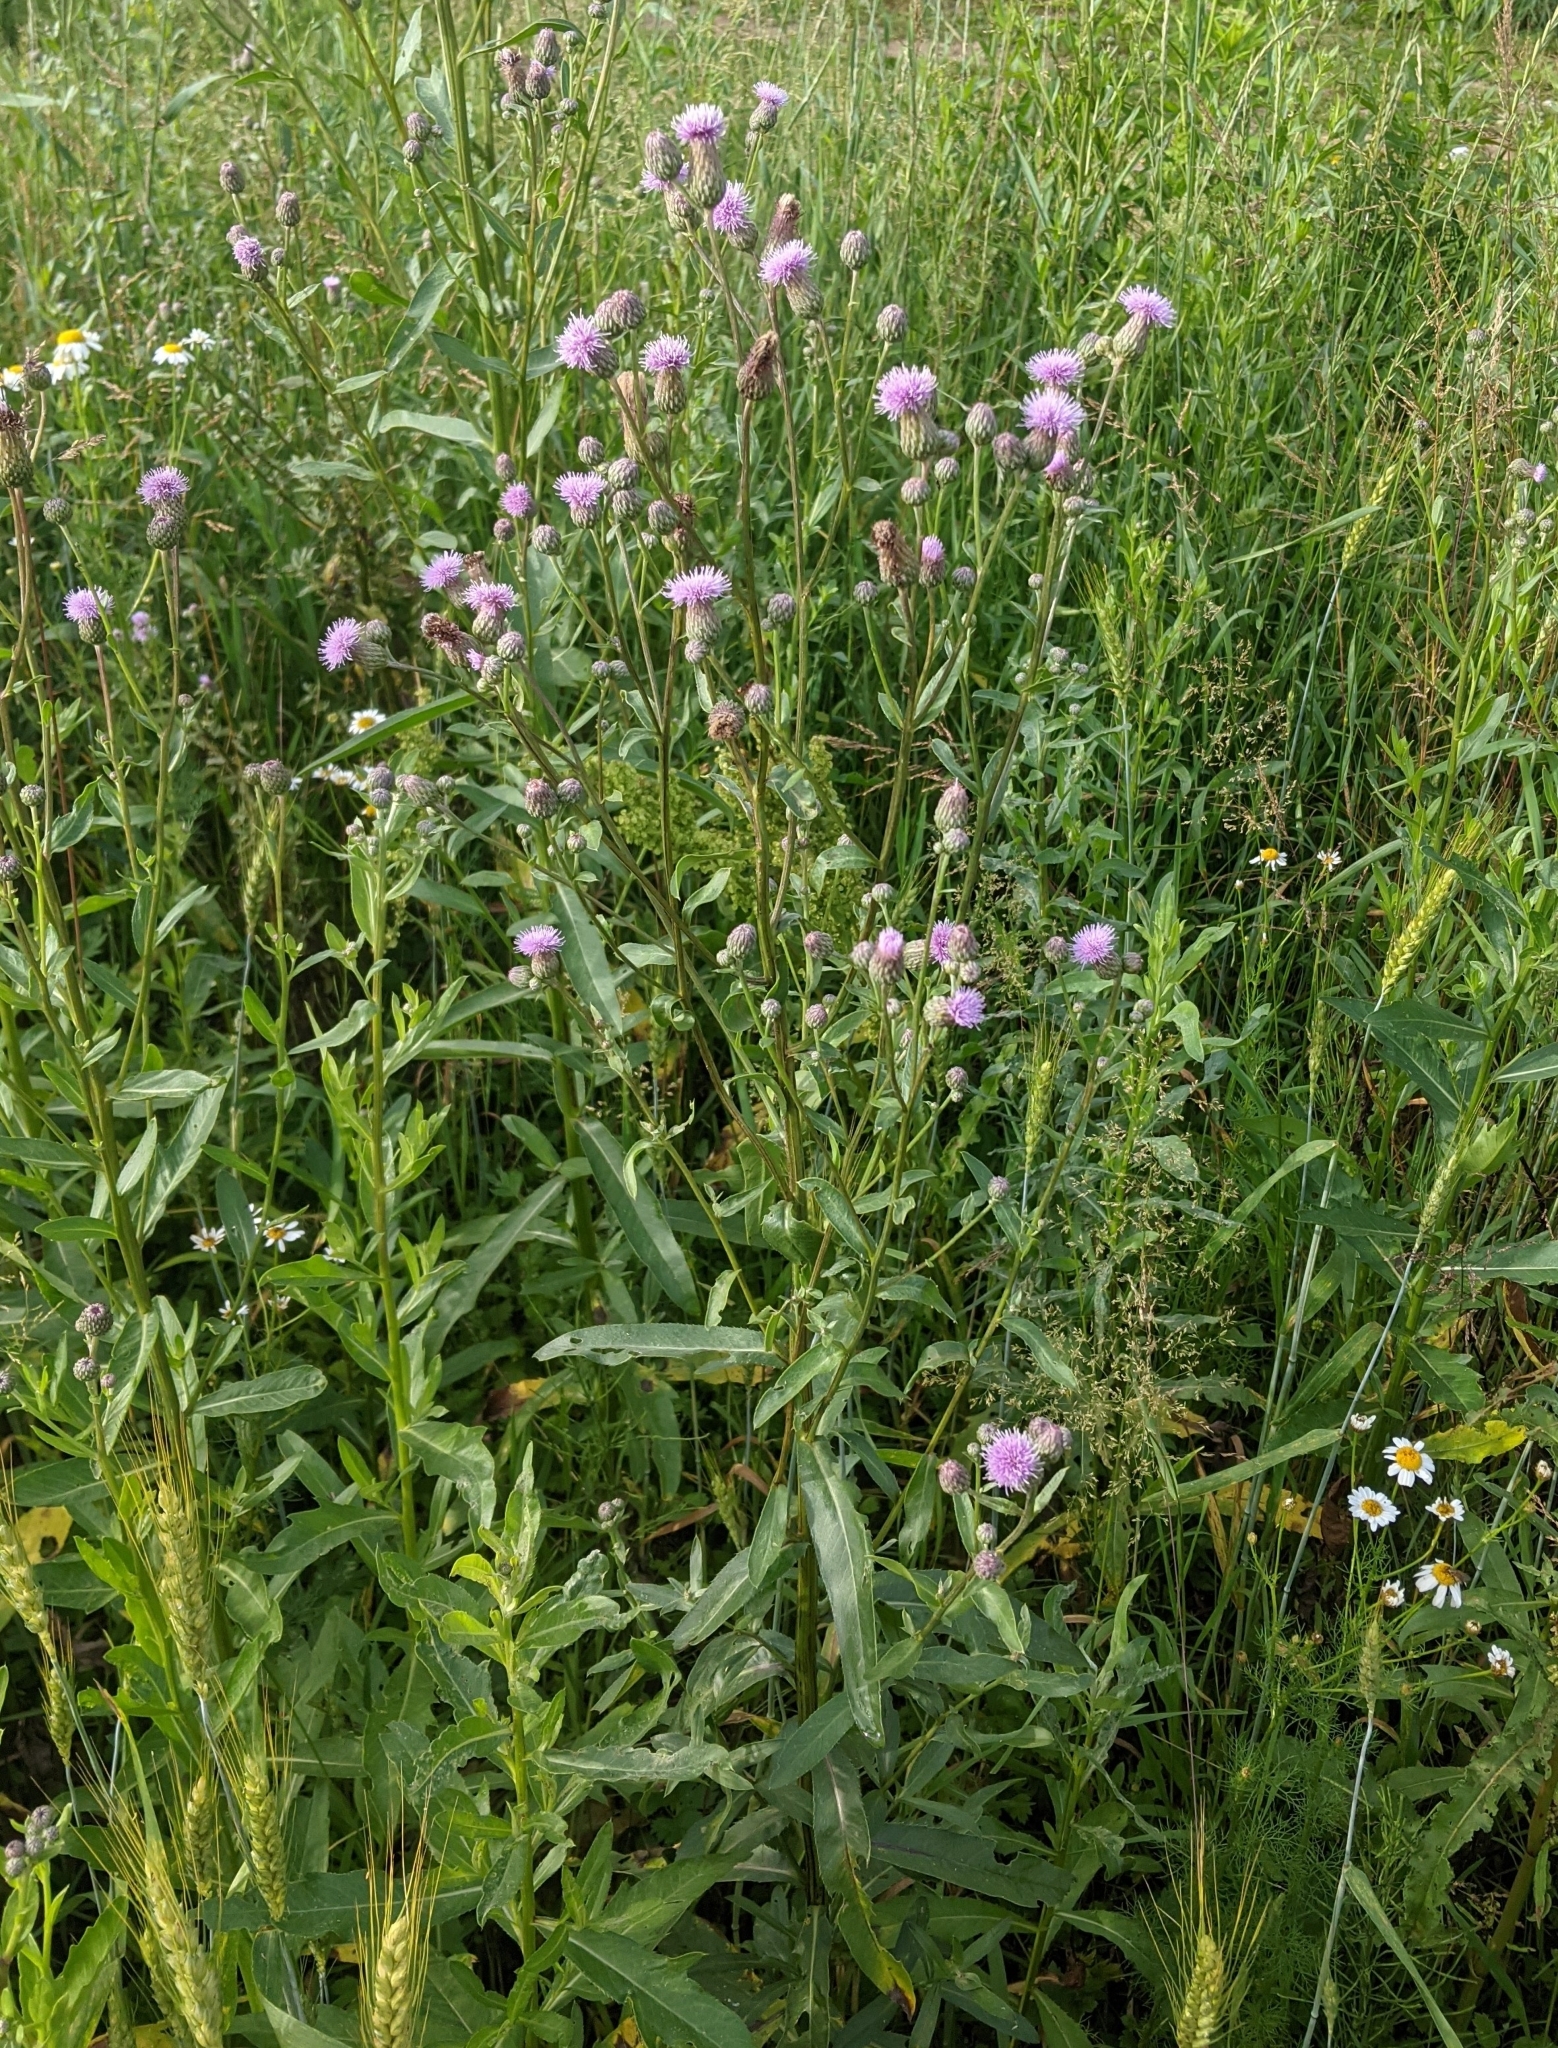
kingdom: Plantae
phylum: Tracheophyta
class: Magnoliopsida
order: Asterales
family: Asteraceae
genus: Cirsium
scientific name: Cirsium arvense
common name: Creeping thistle
